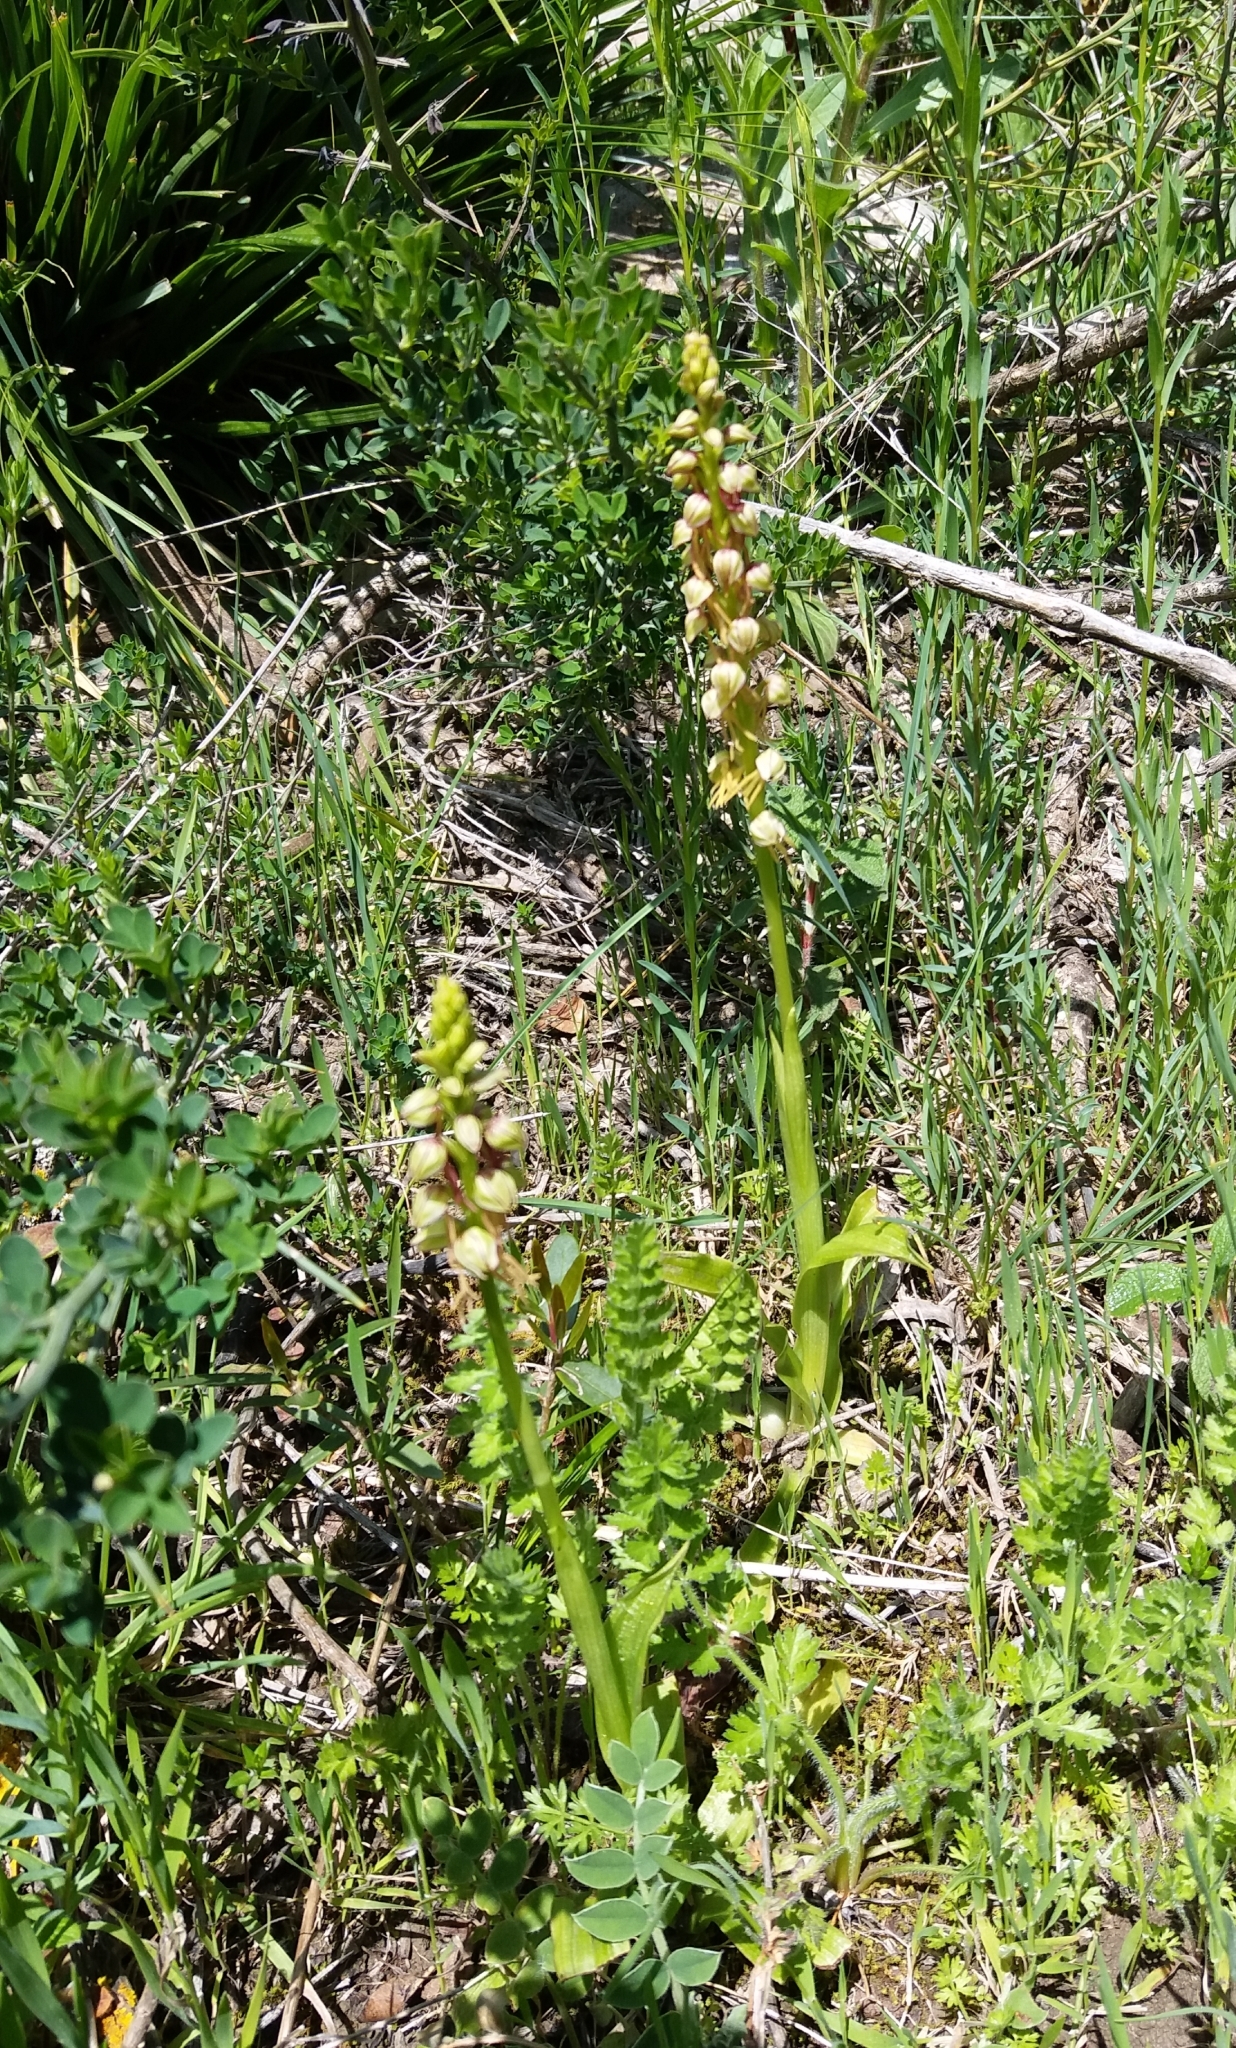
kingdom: Plantae
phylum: Tracheophyta
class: Liliopsida
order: Asparagales
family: Orchidaceae
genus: Orchis
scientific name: Orchis anthropophora
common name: Man orchid
